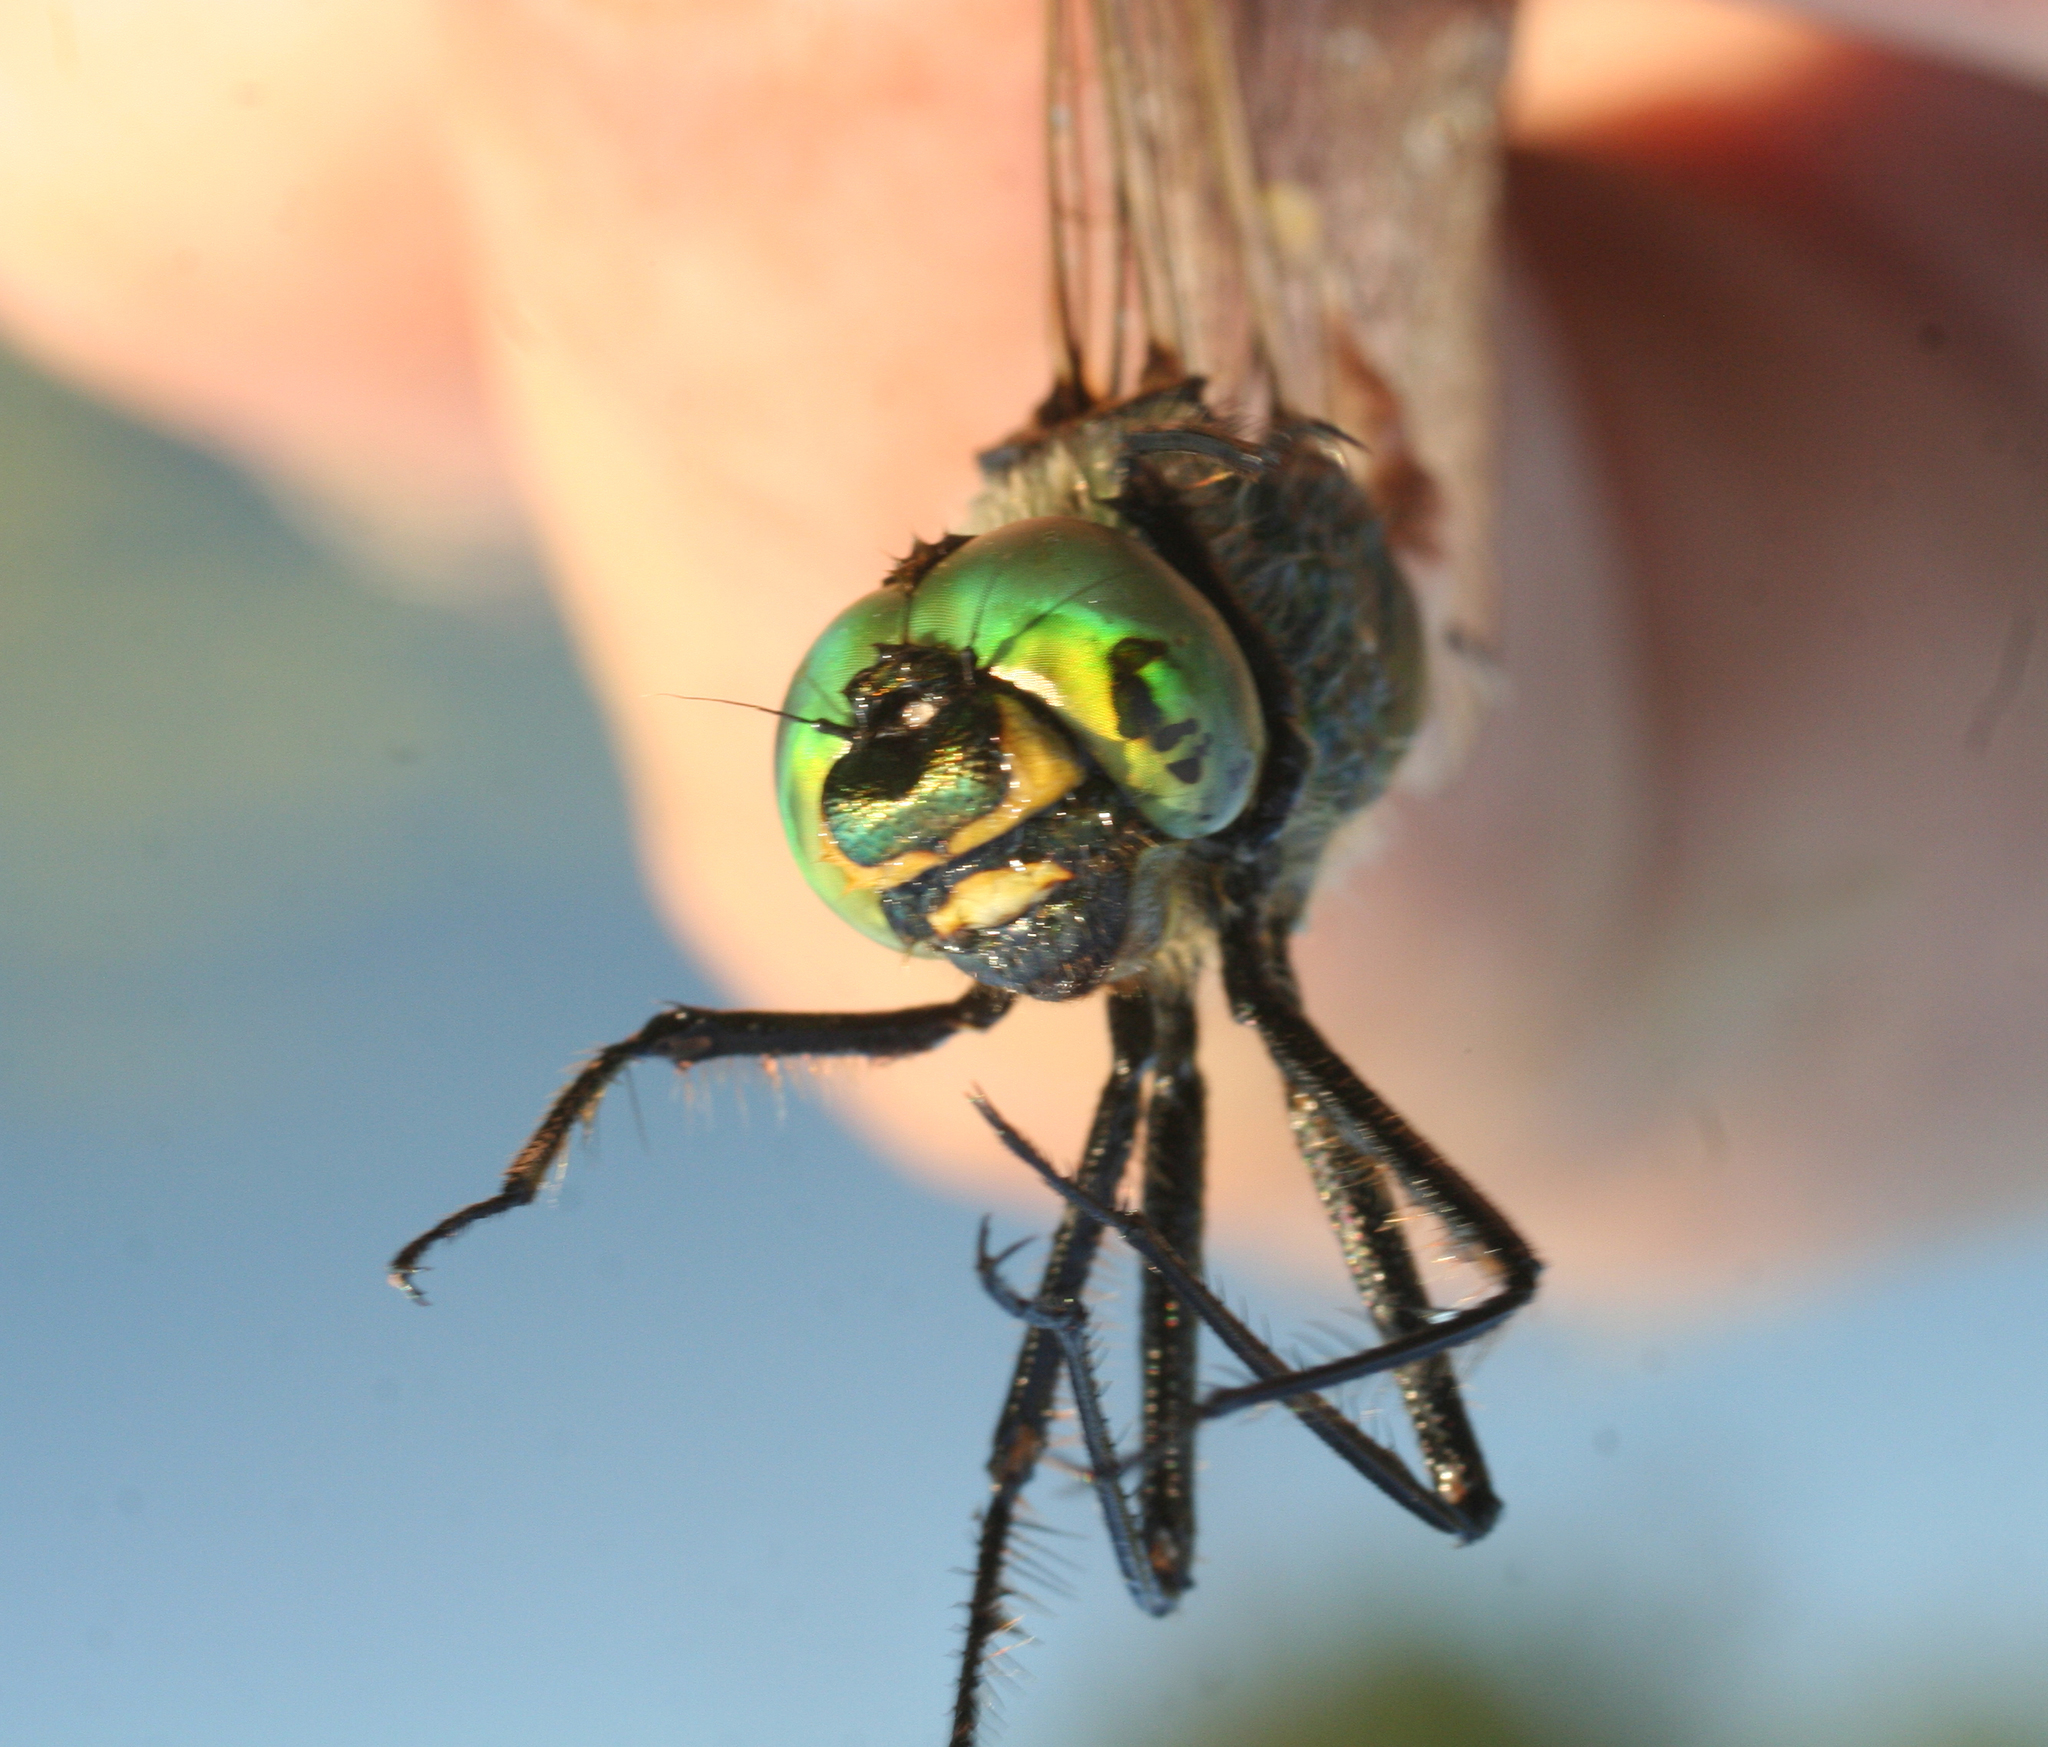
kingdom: Animalia
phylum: Arthropoda
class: Insecta
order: Odonata
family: Corduliidae
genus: Somatochlora
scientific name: Somatochlora metallica
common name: Brilliant emerald
